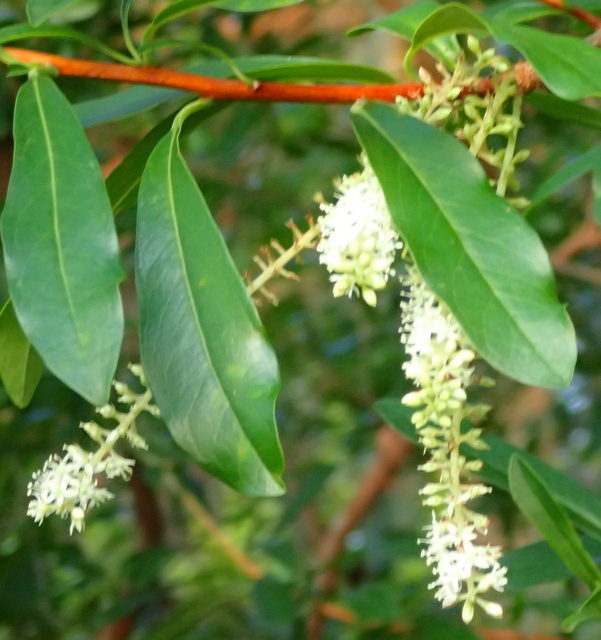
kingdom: Plantae
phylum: Tracheophyta
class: Magnoliopsida
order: Ericales
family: Cyrillaceae
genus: Cyrilla
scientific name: Cyrilla racemiflora
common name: Black titi
